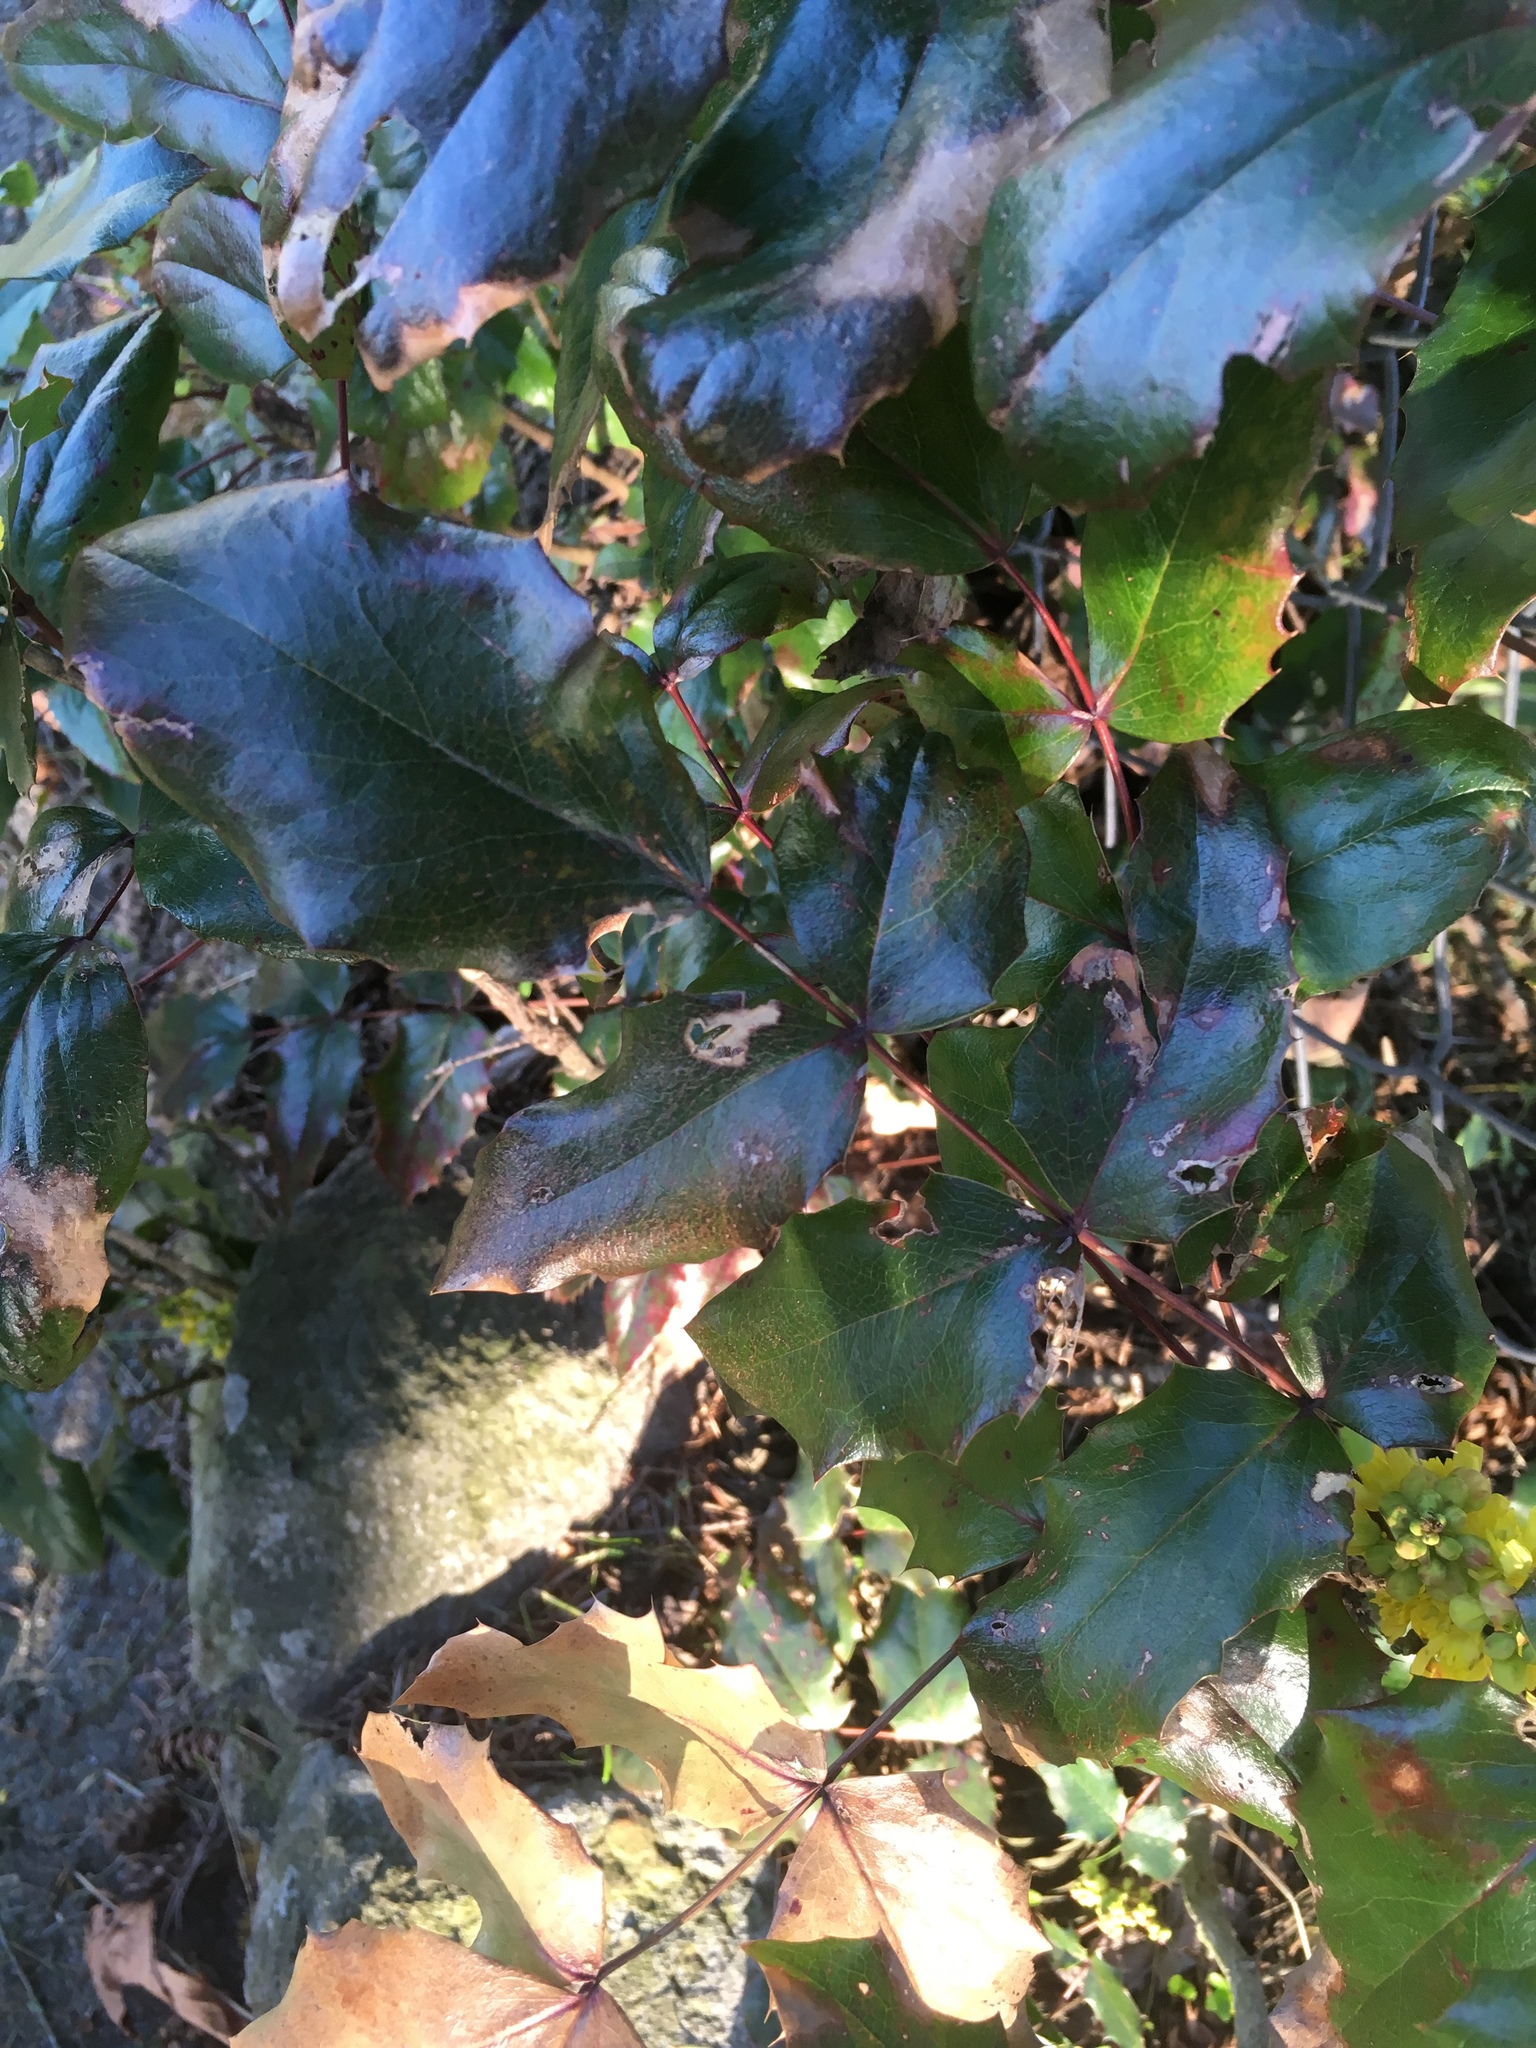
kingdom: Plantae
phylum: Tracheophyta
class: Magnoliopsida
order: Ranunculales
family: Berberidaceae
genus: Mahonia
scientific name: Mahonia aquifolium
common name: Oregon-grape
